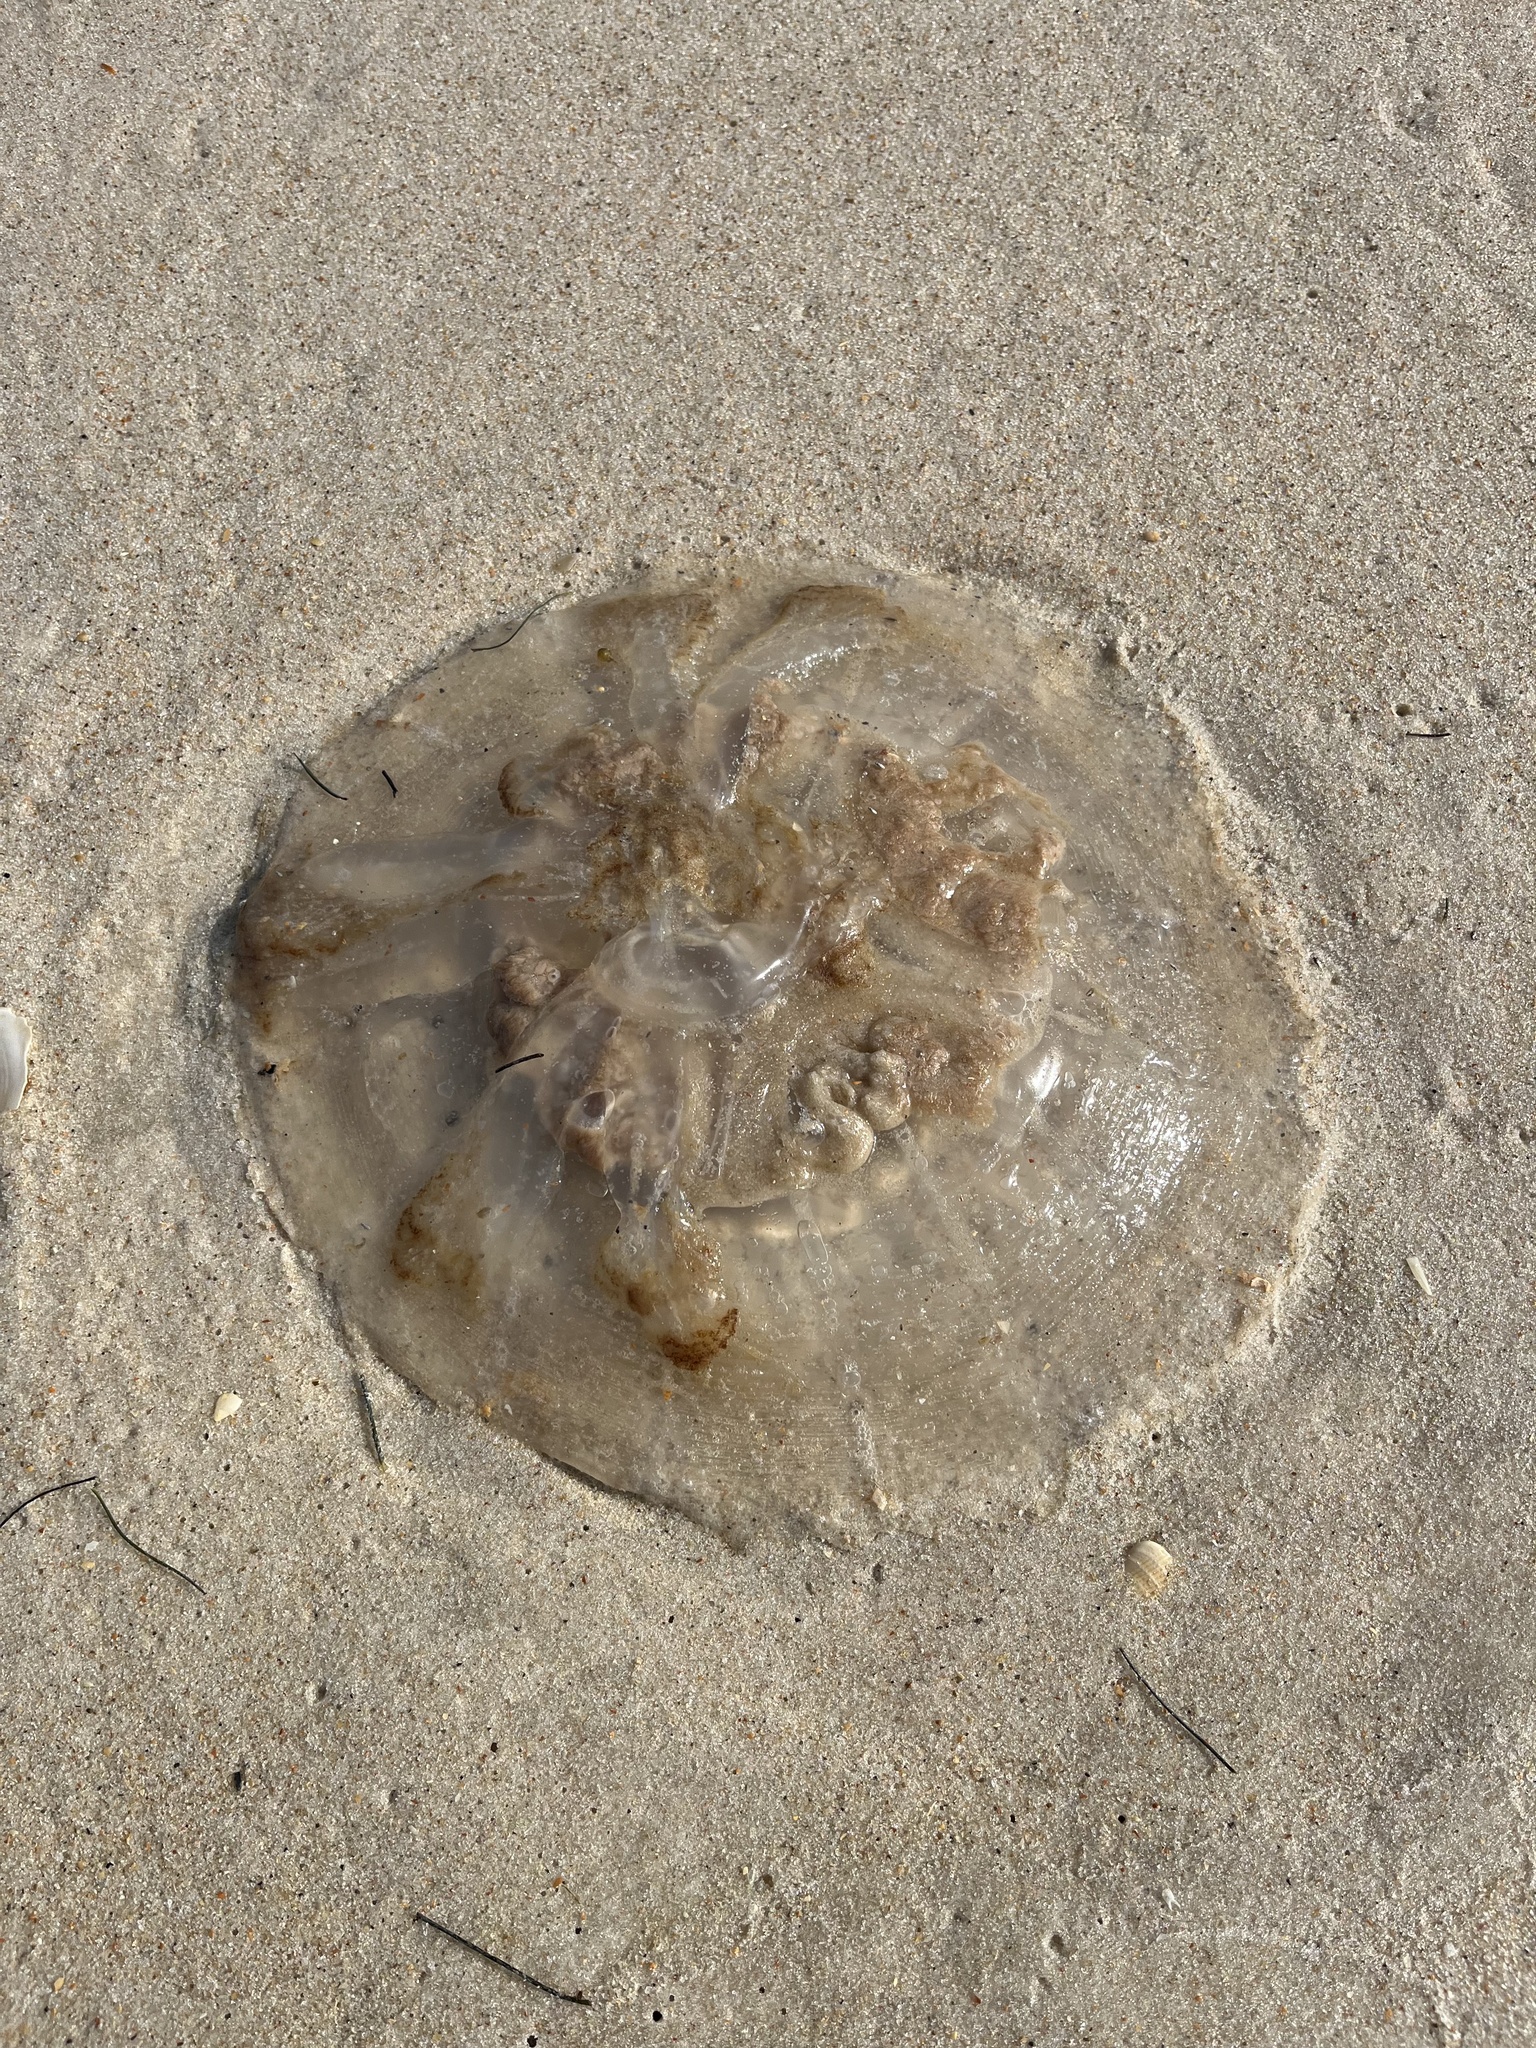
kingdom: Animalia
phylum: Cnidaria
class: Scyphozoa
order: Rhizostomeae
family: Rhizostomatidae
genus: Rhopilema
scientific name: Rhopilema verrilli
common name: Mushroom cap jellyfish
